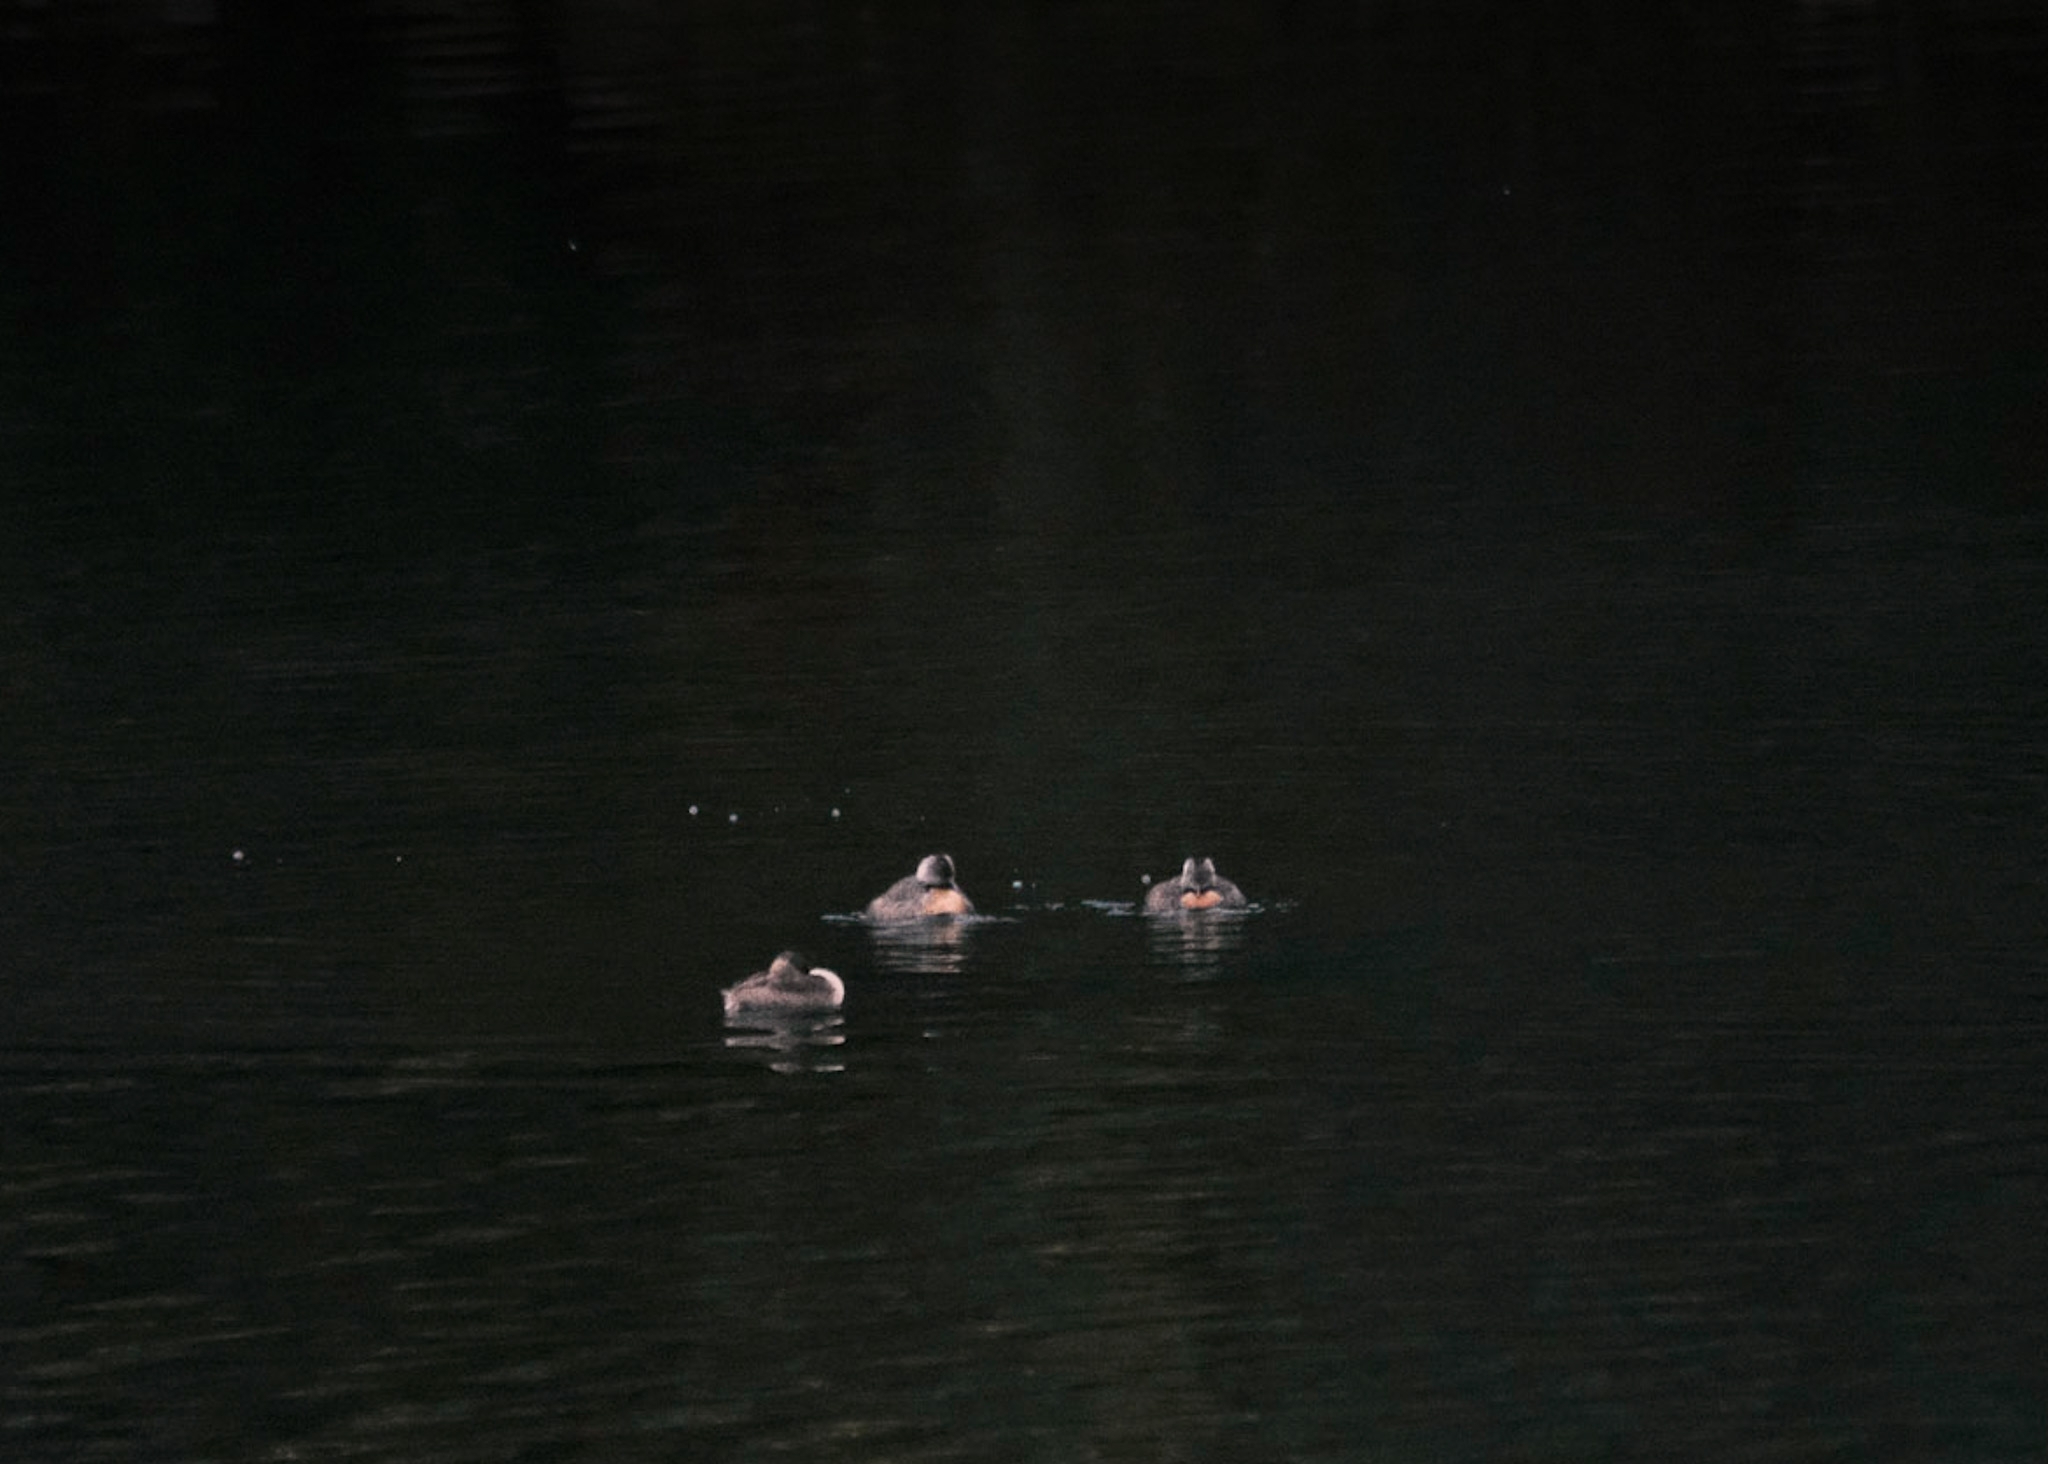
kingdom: Animalia
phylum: Chordata
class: Aves
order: Podicipediformes
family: Podicipedidae
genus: Poliocephalus
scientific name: Poliocephalus poliocephalus
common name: Hoary-headed grebe
